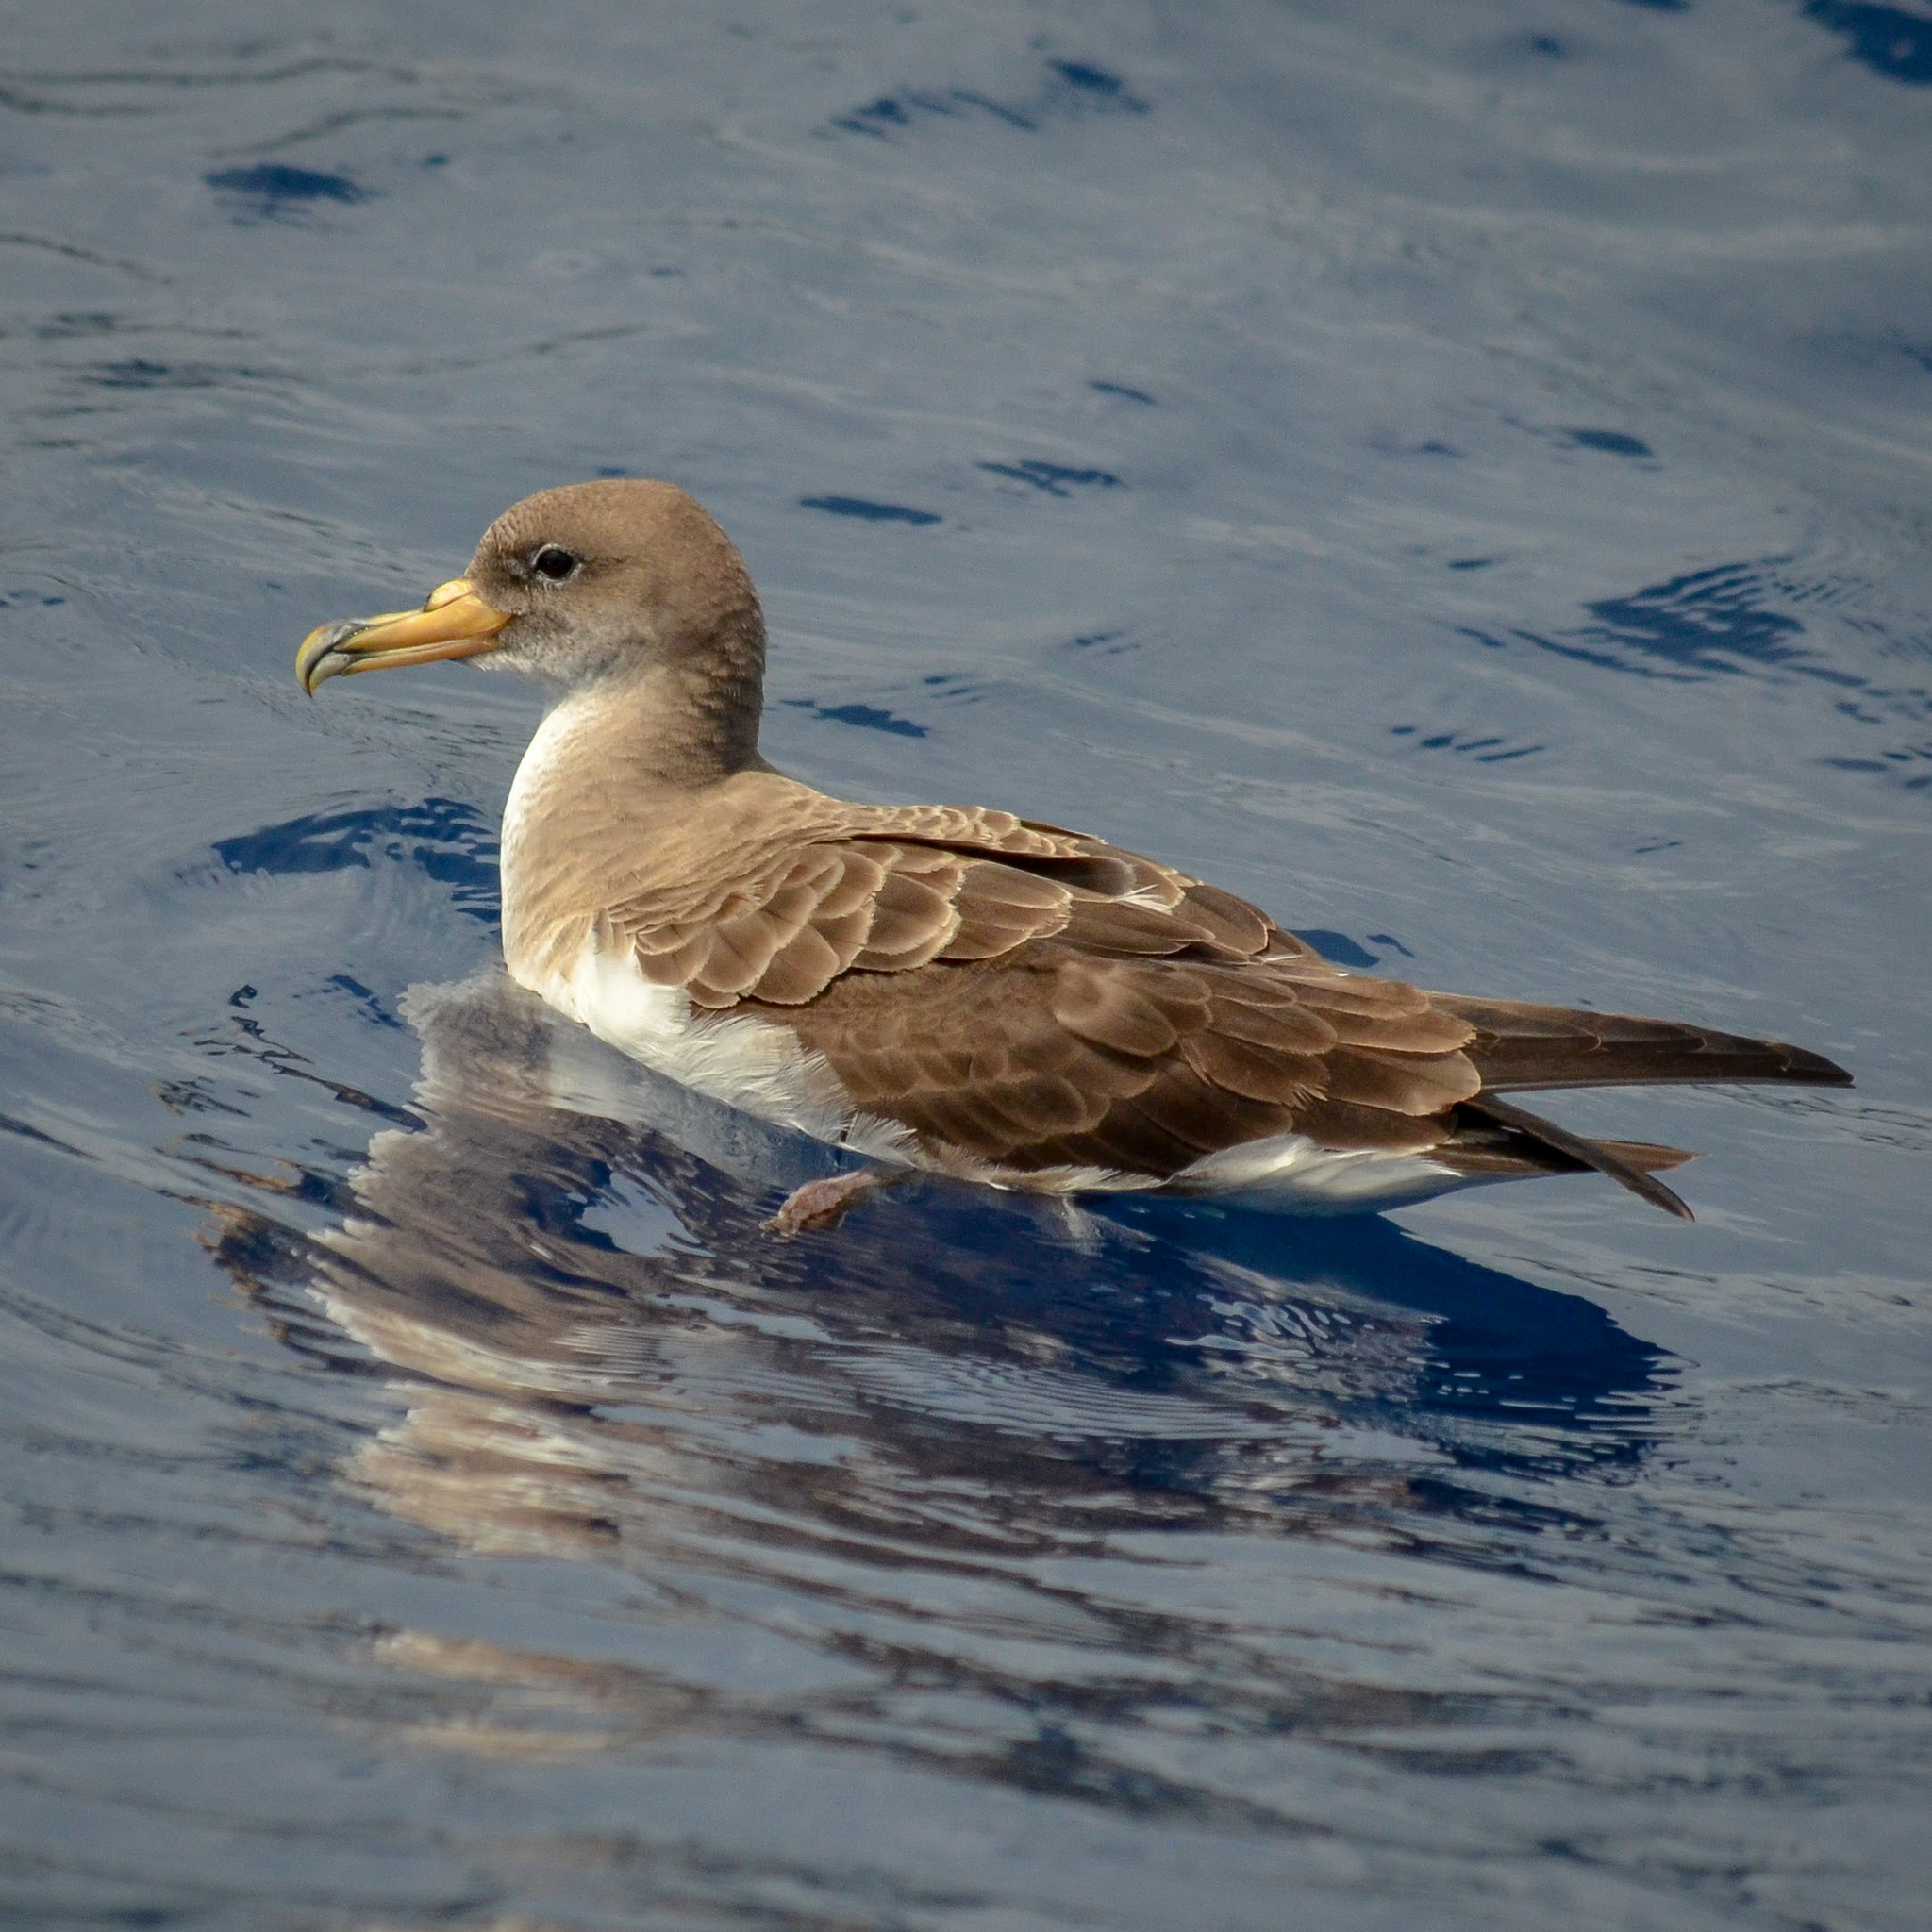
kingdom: Animalia
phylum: Chordata
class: Aves
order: Procellariiformes
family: Procellariidae
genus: Calonectris
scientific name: Calonectris diomedea
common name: Cory's shearwater
